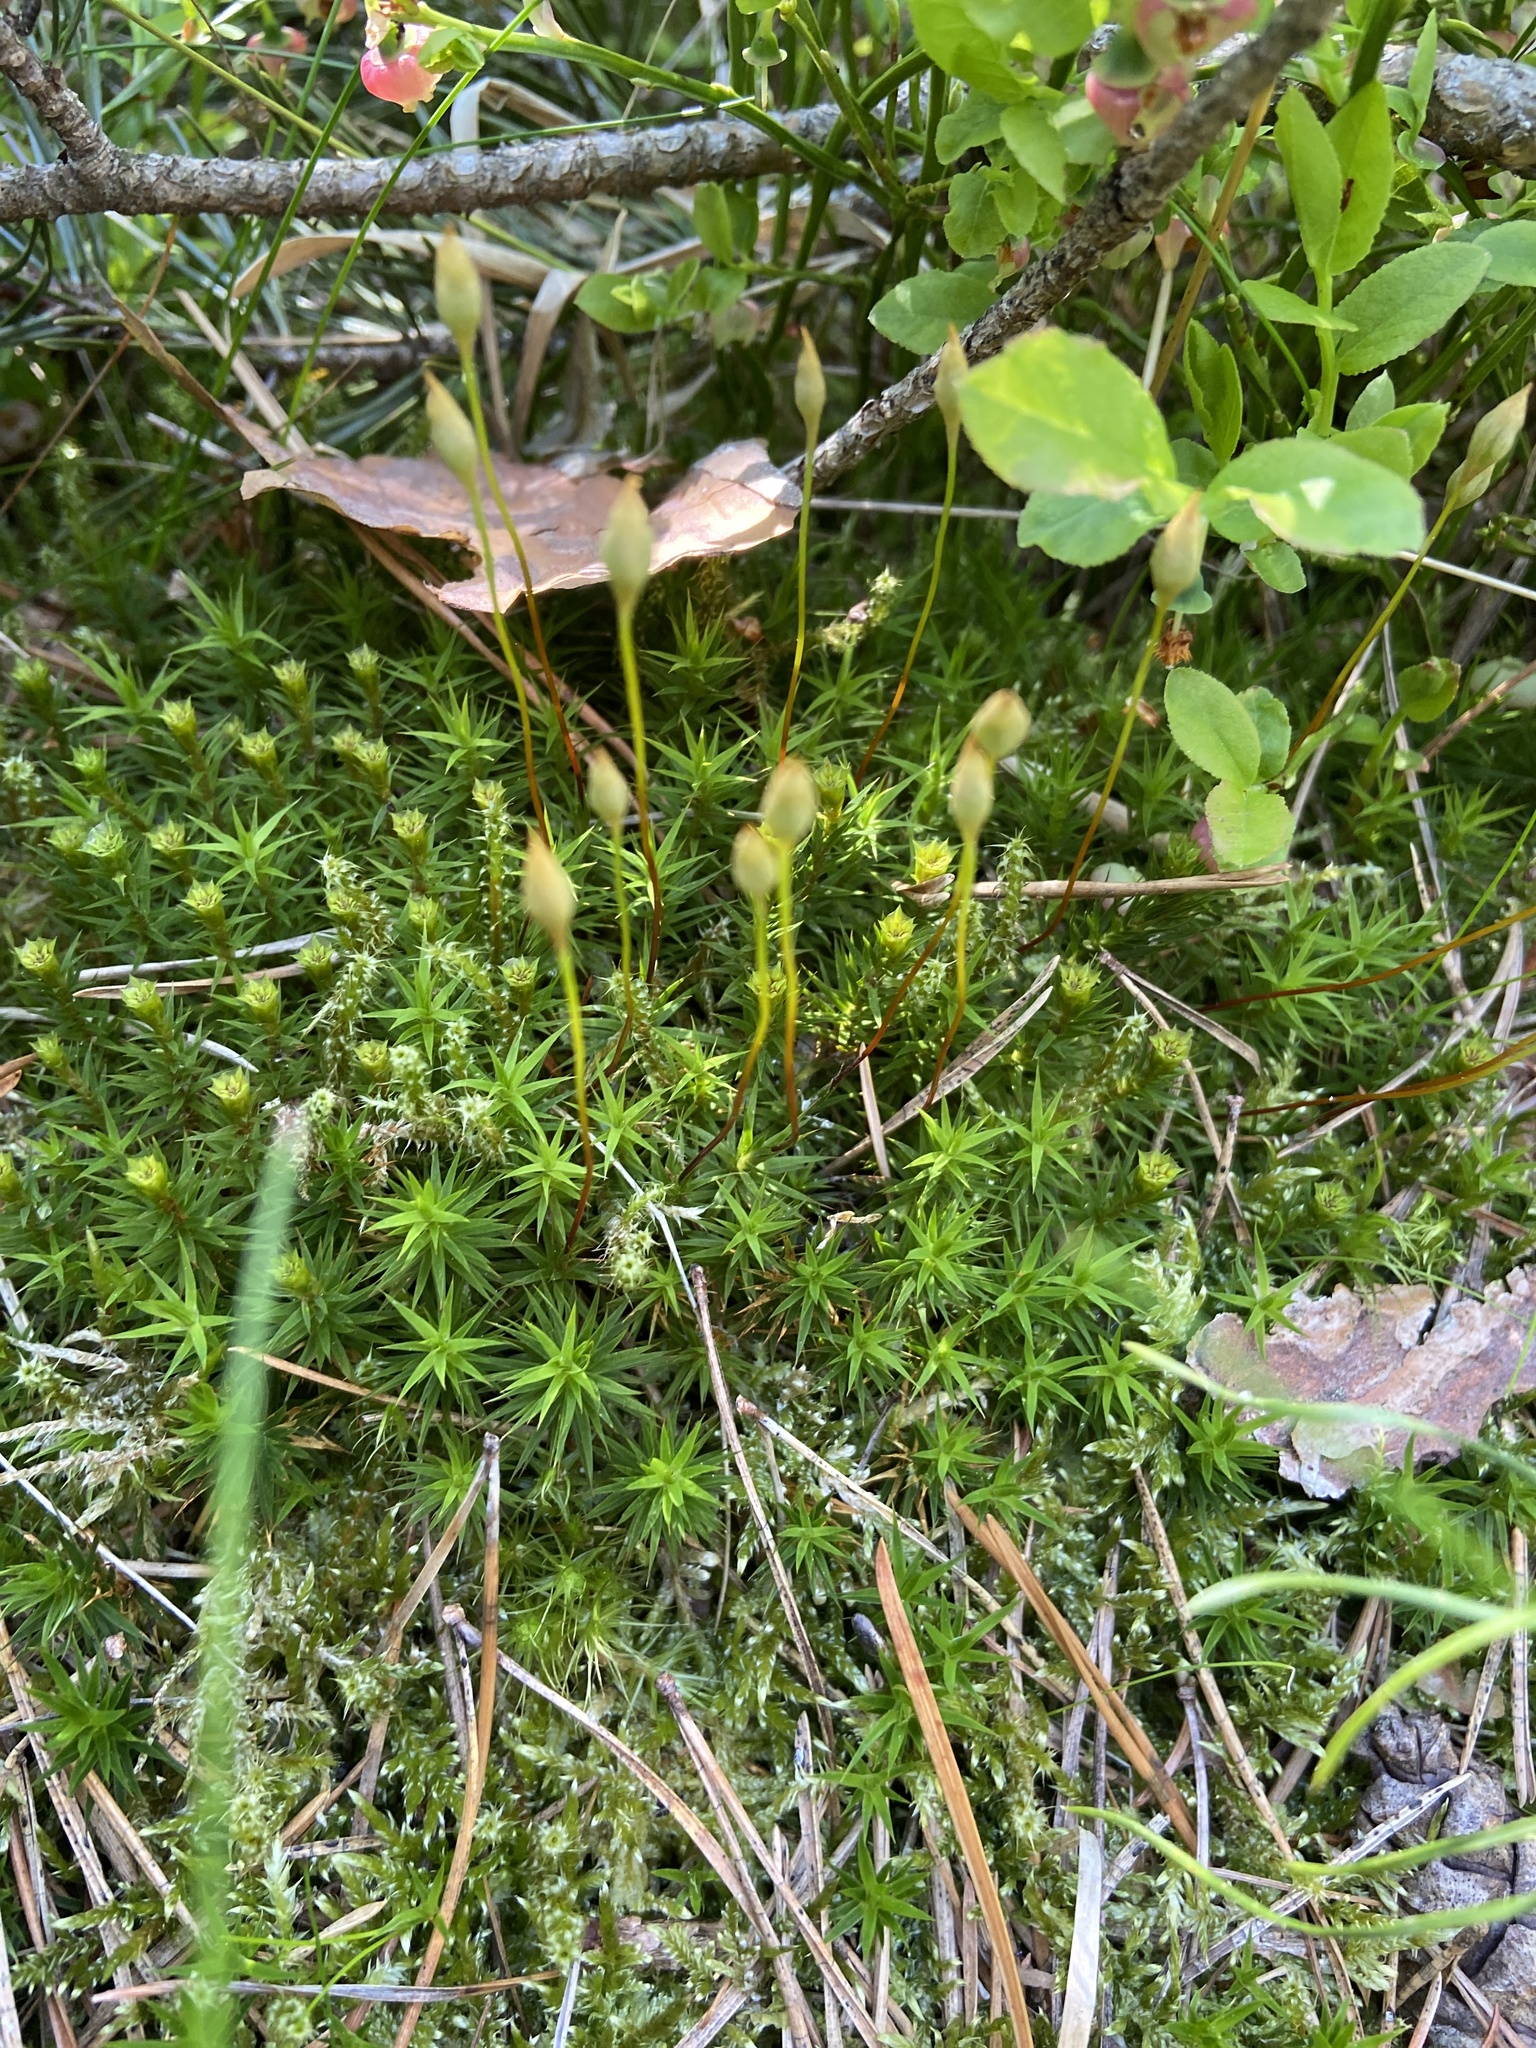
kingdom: Plantae
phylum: Bryophyta
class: Polytrichopsida
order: Polytrichales
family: Polytrichaceae
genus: Polytrichum
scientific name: Polytrichum formosum
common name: Bank haircap moss
